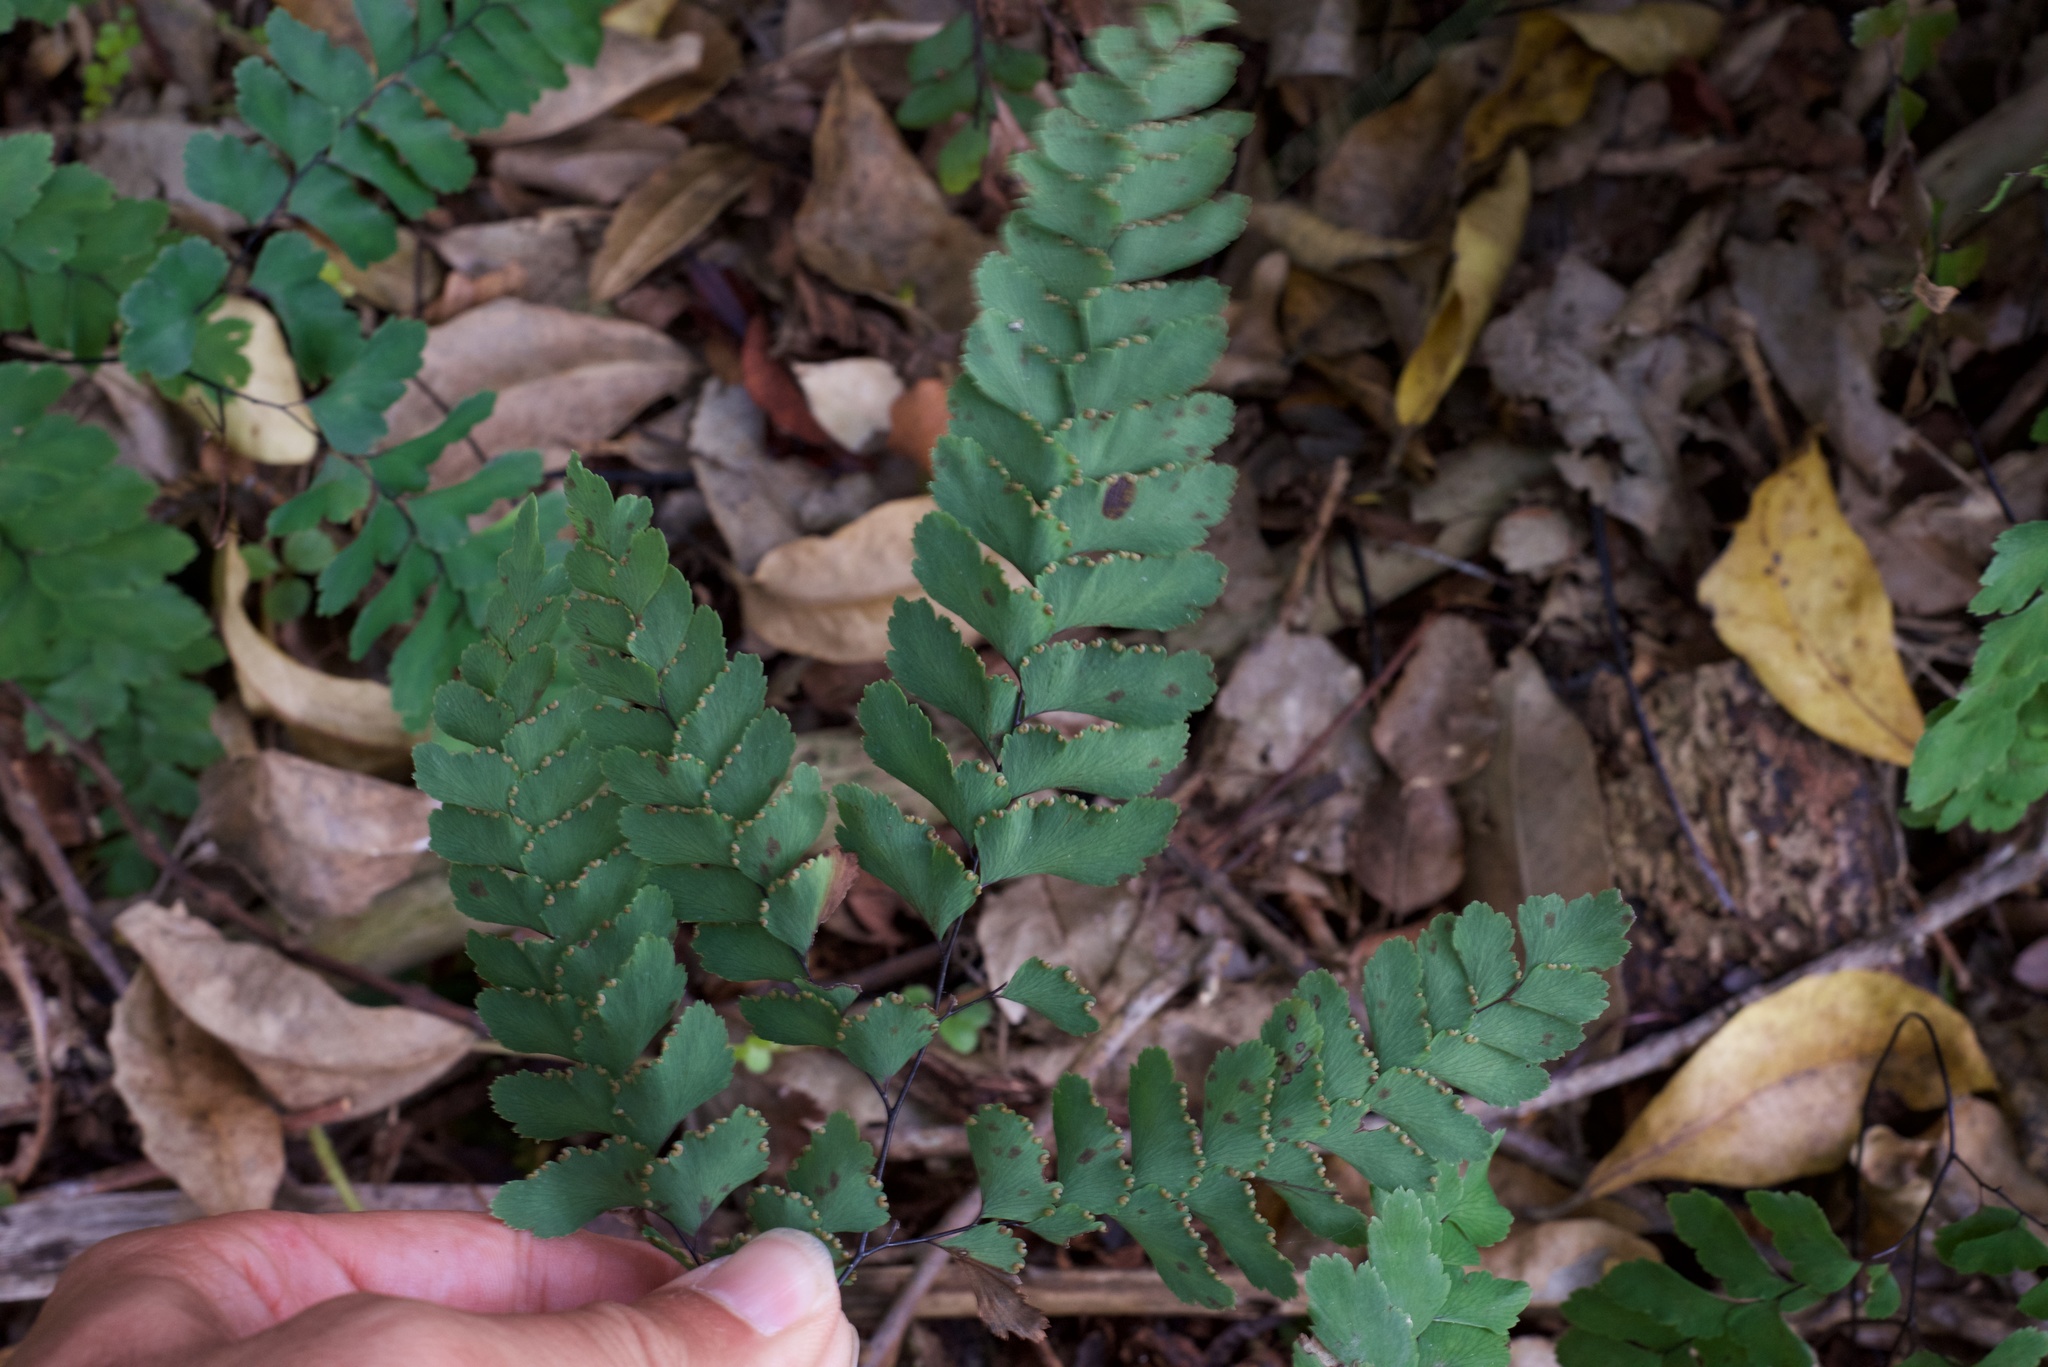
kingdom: Plantae
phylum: Tracheophyta
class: Polypodiopsida
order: Polypodiales
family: Pteridaceae
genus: Adiantum
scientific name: Adiantum cunninghamii
